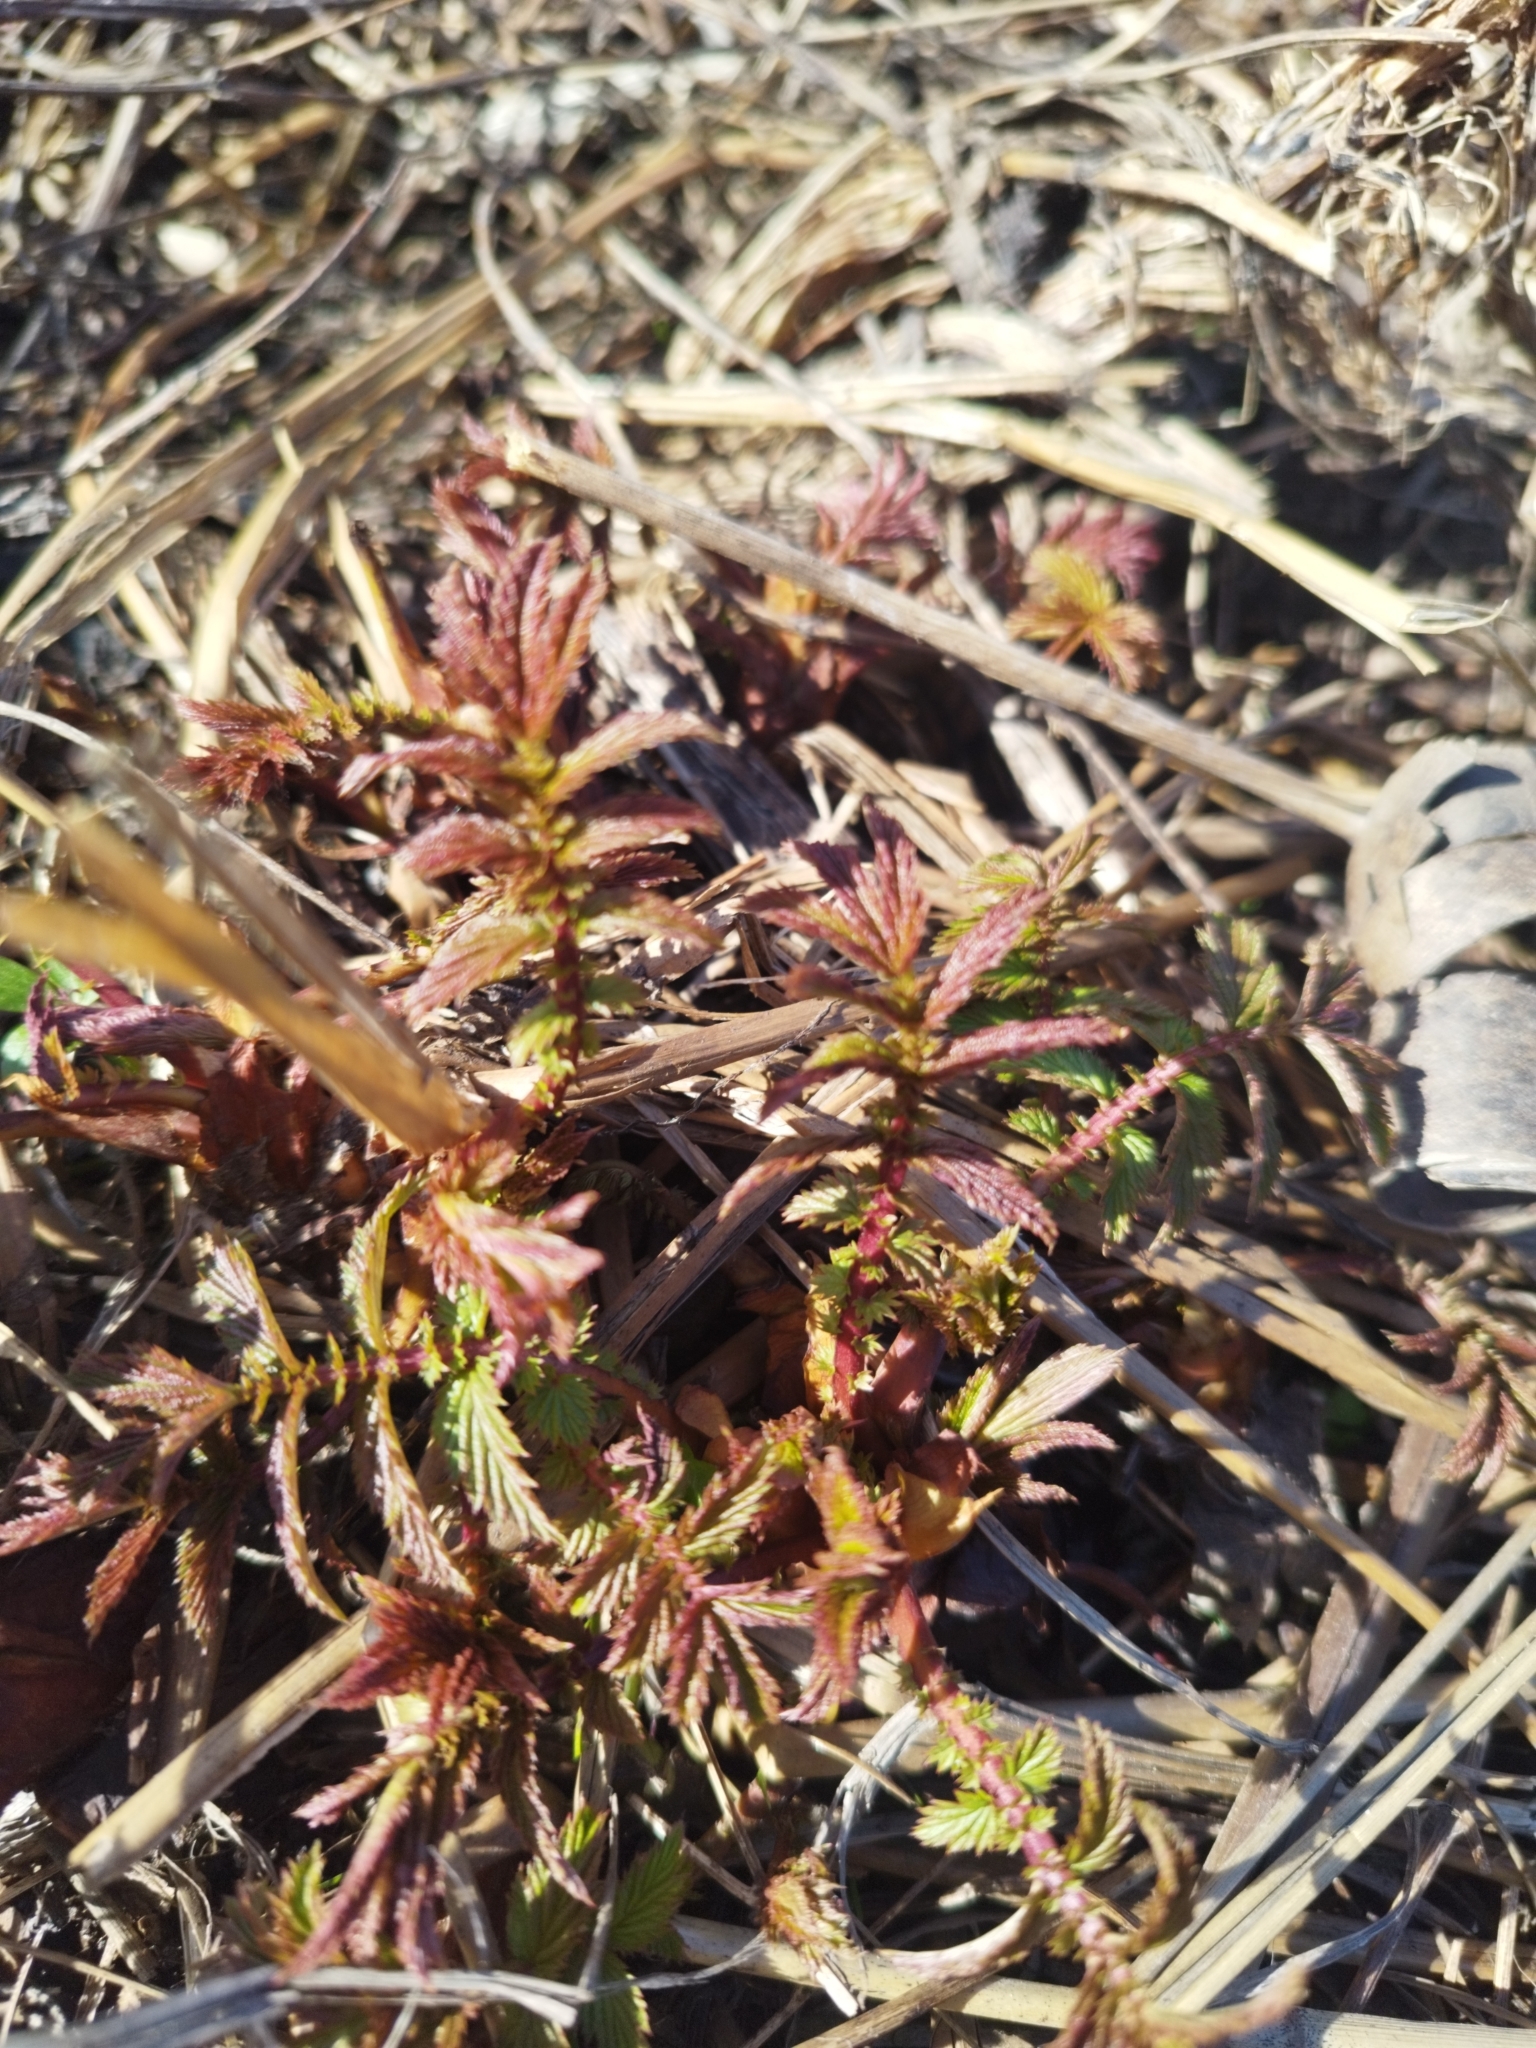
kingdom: Plantae
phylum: Tracheophyta
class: Magnoliopsida
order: Rosales
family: Rosaceae
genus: Filipendula
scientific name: Filipendula ulmaria
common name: Meadowsweet
